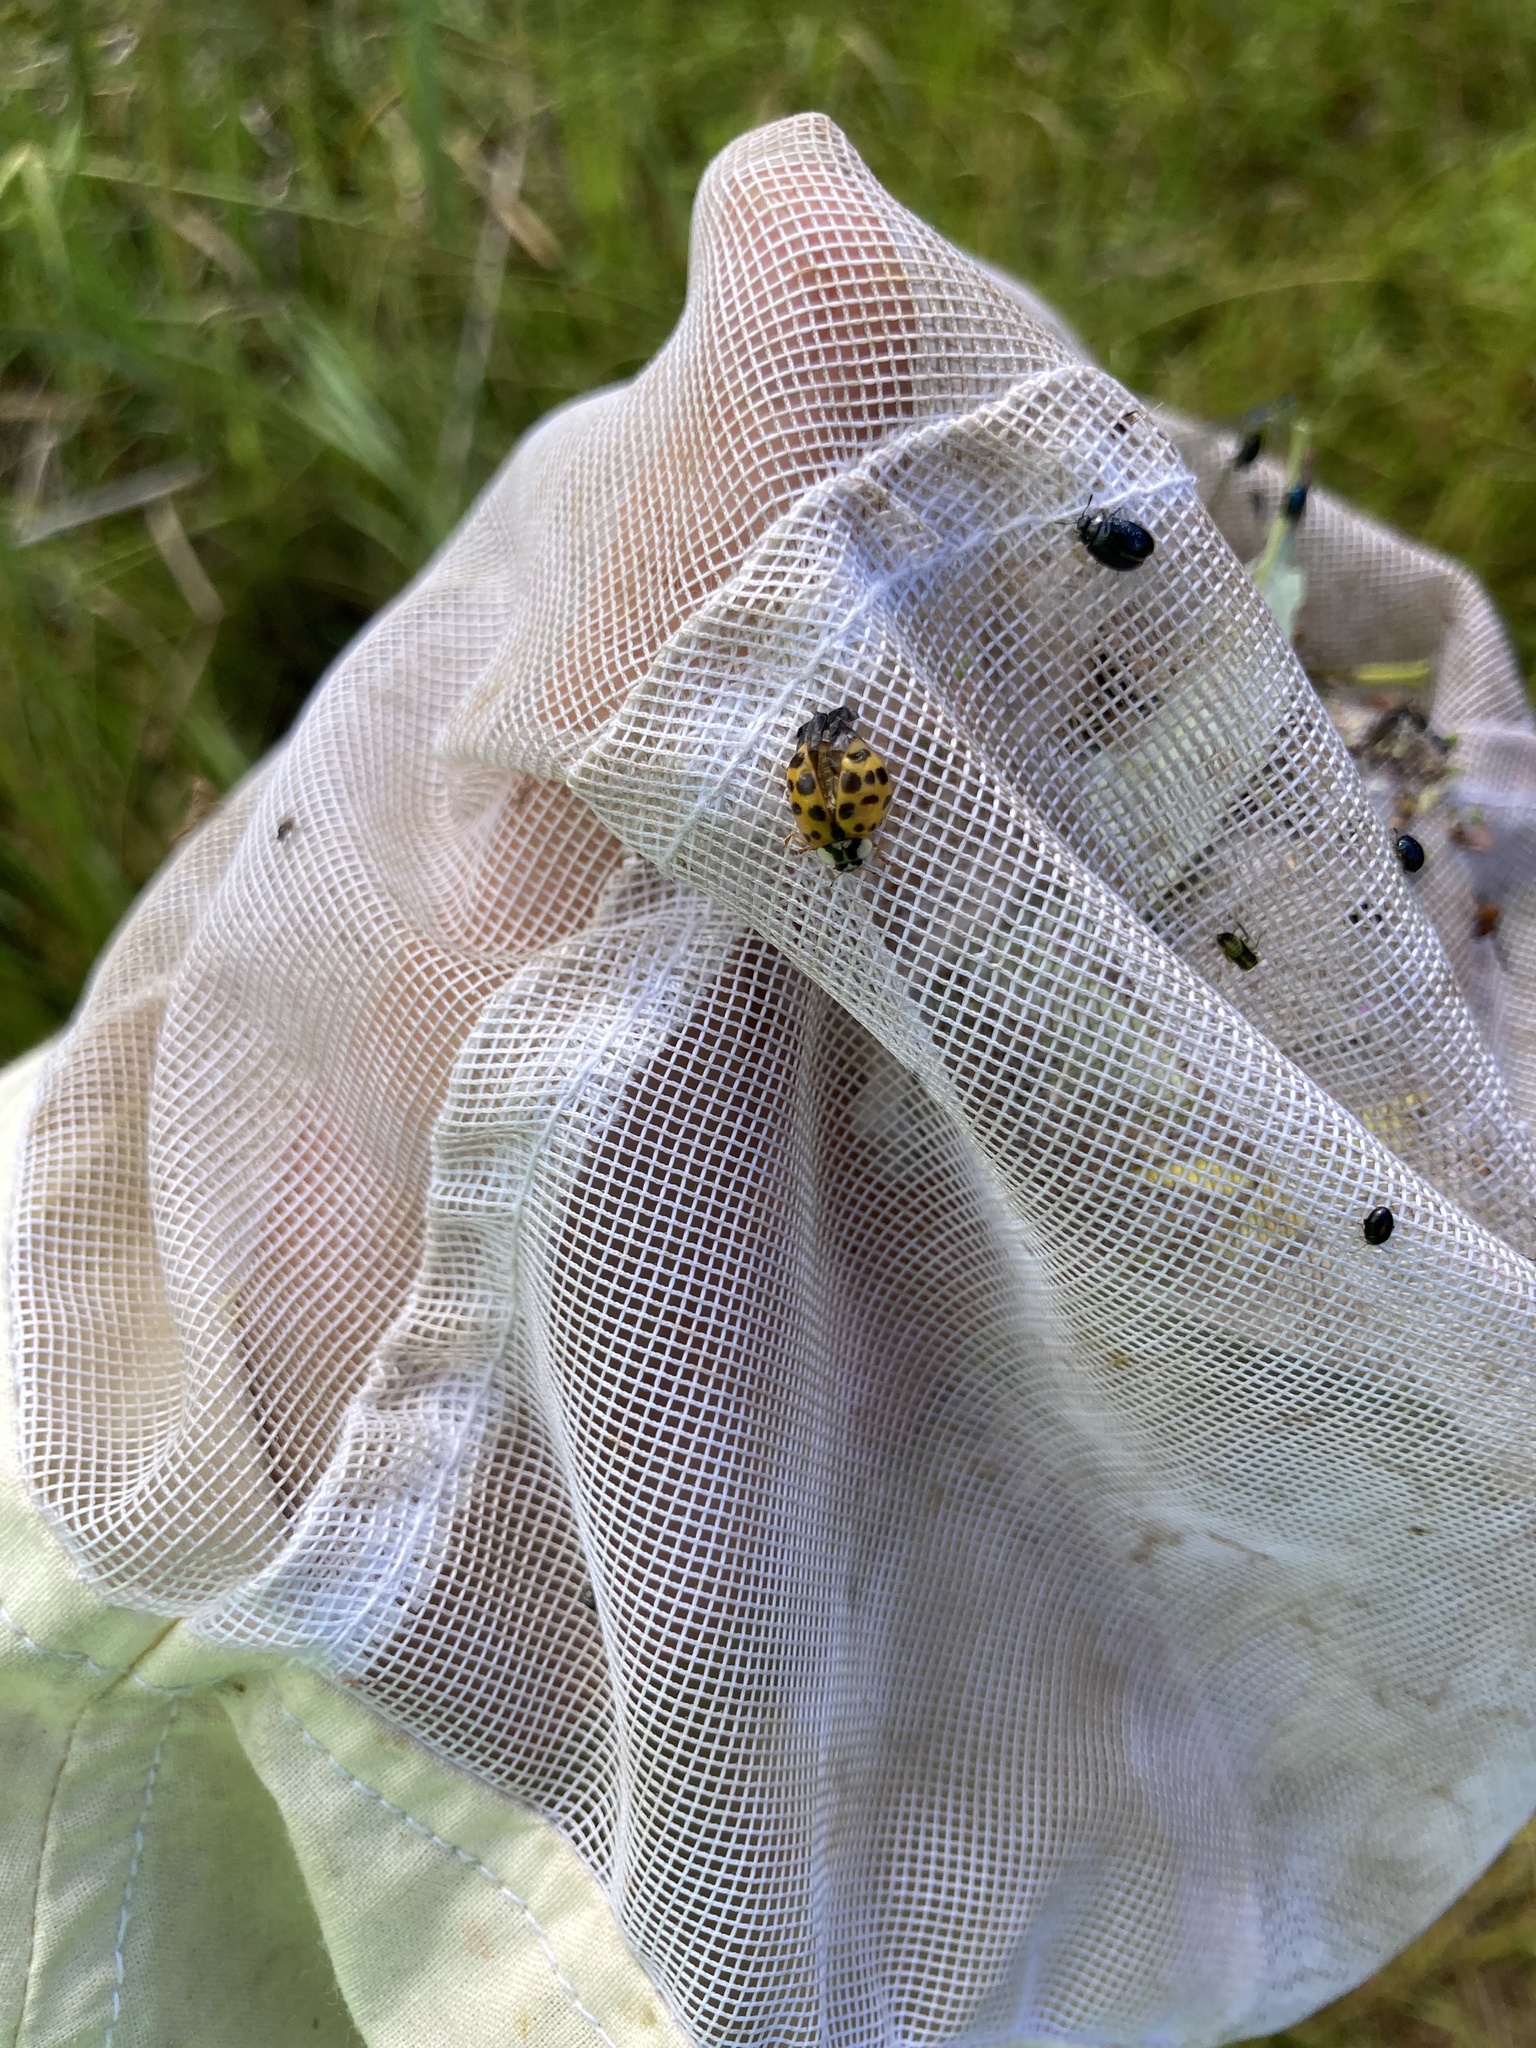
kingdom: Animalia
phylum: Arthropoda
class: Insecta
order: Coleoptera
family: Coccinellidae
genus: Harmonia
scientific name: Harmonia axyridis
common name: Harlequin ladybird
